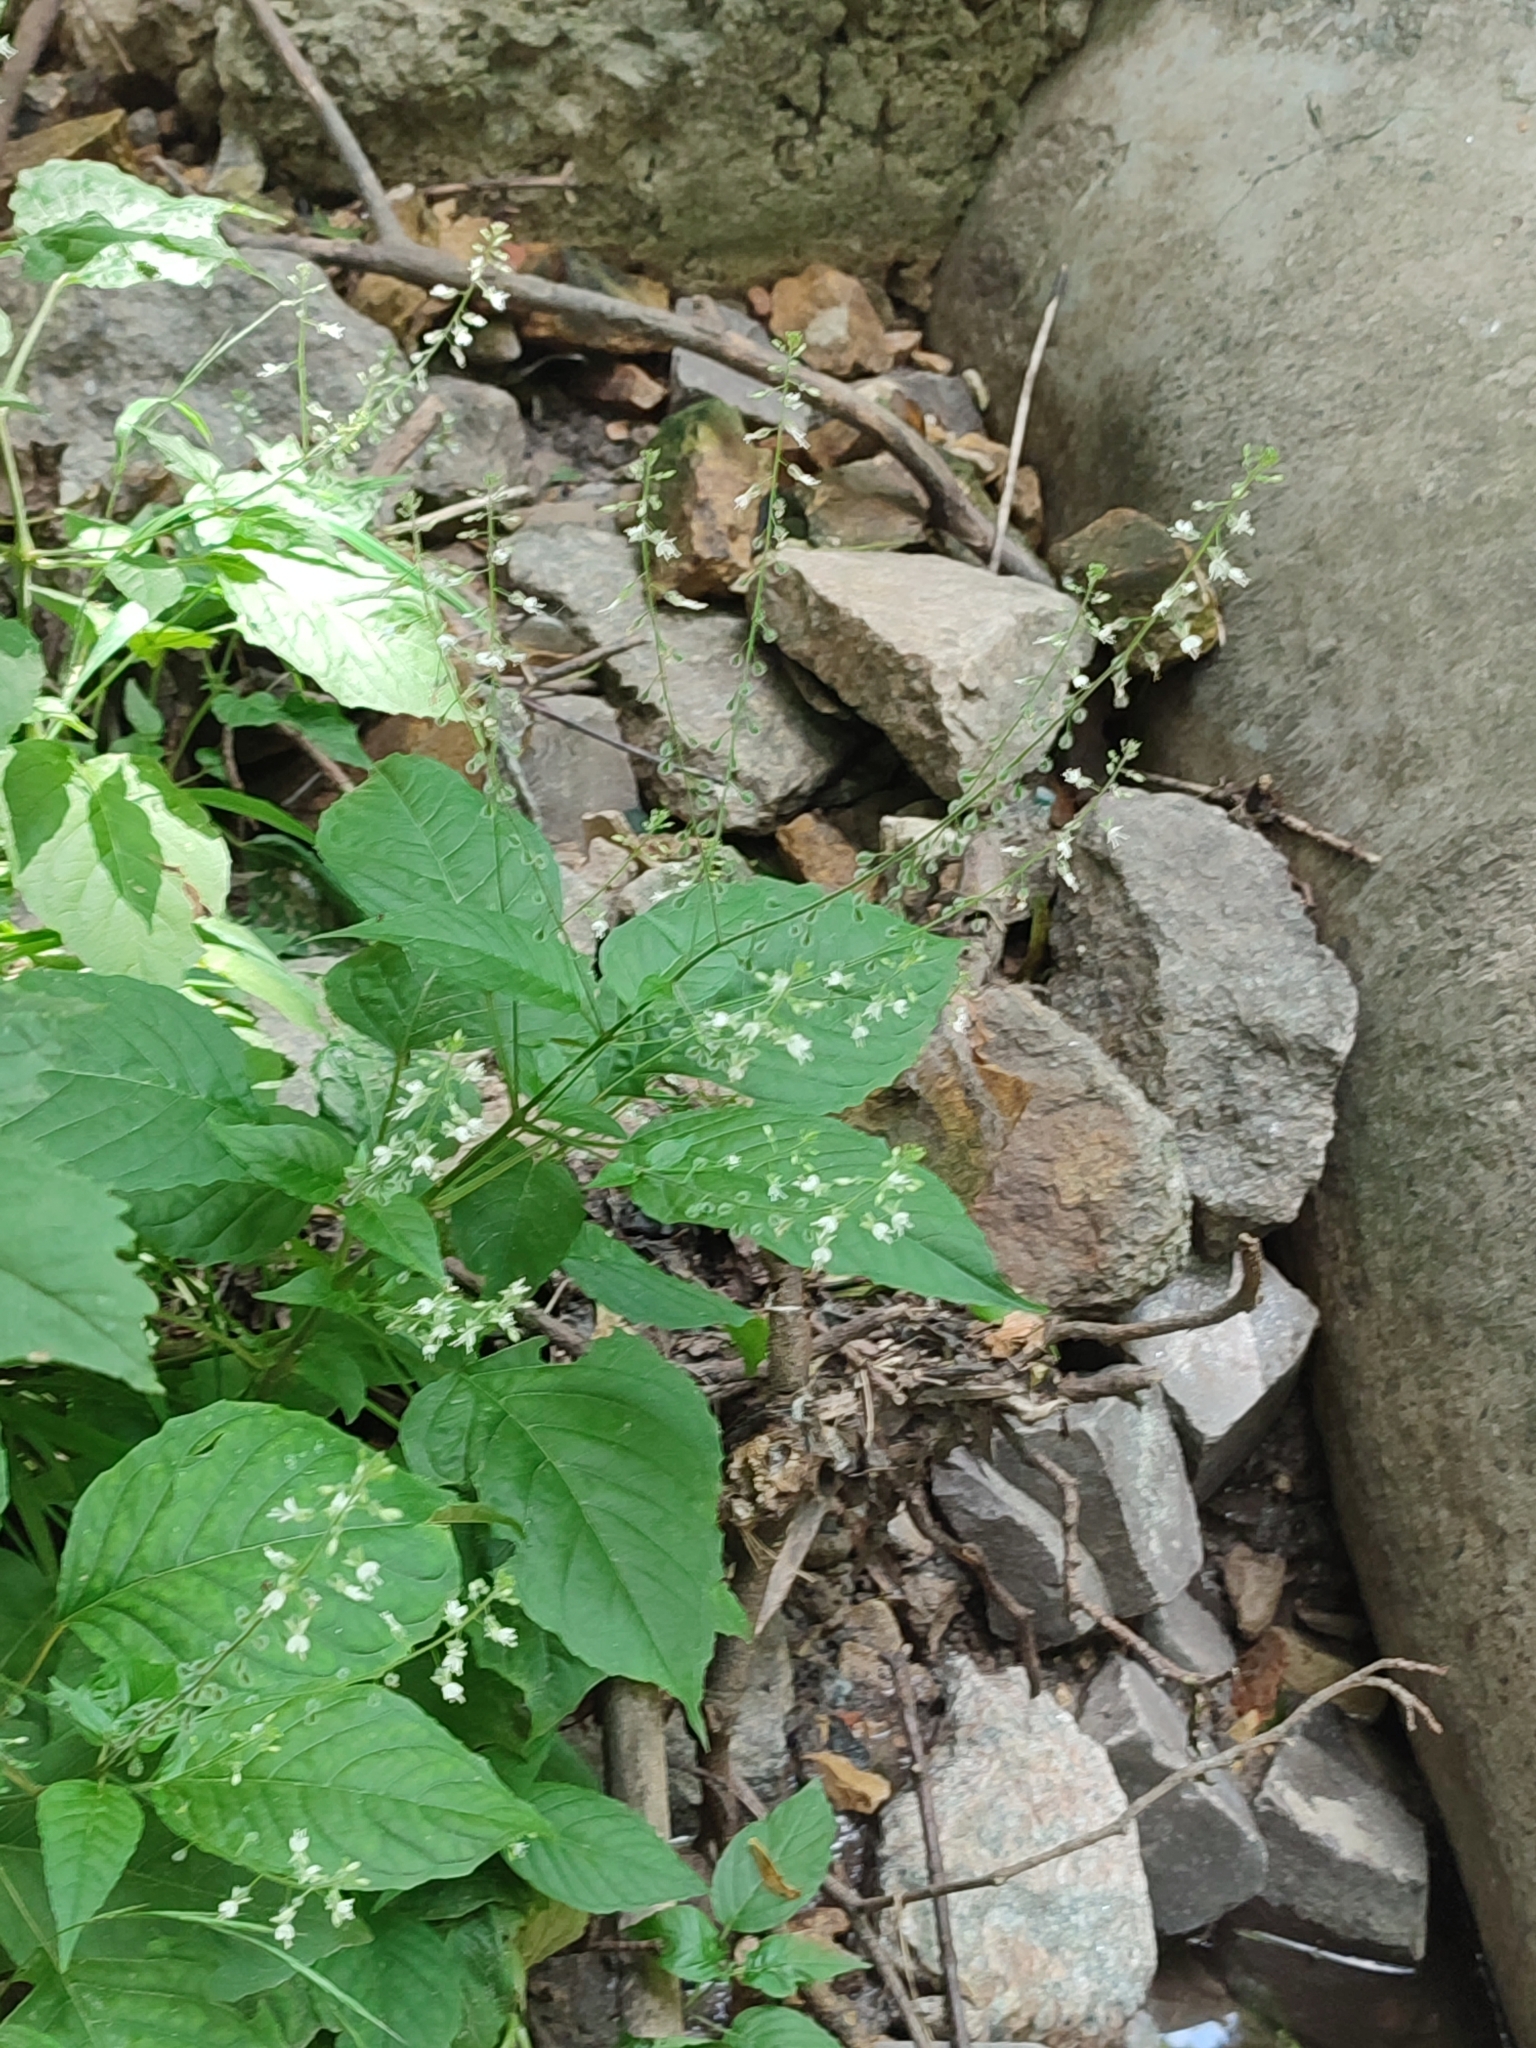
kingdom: Plantae
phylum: Tracheophyta
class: Magnoliopsida
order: Myrtales
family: Onagraceae
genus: Circaea
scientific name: Circaea lutetiana
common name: Enchanter's-nightshade
